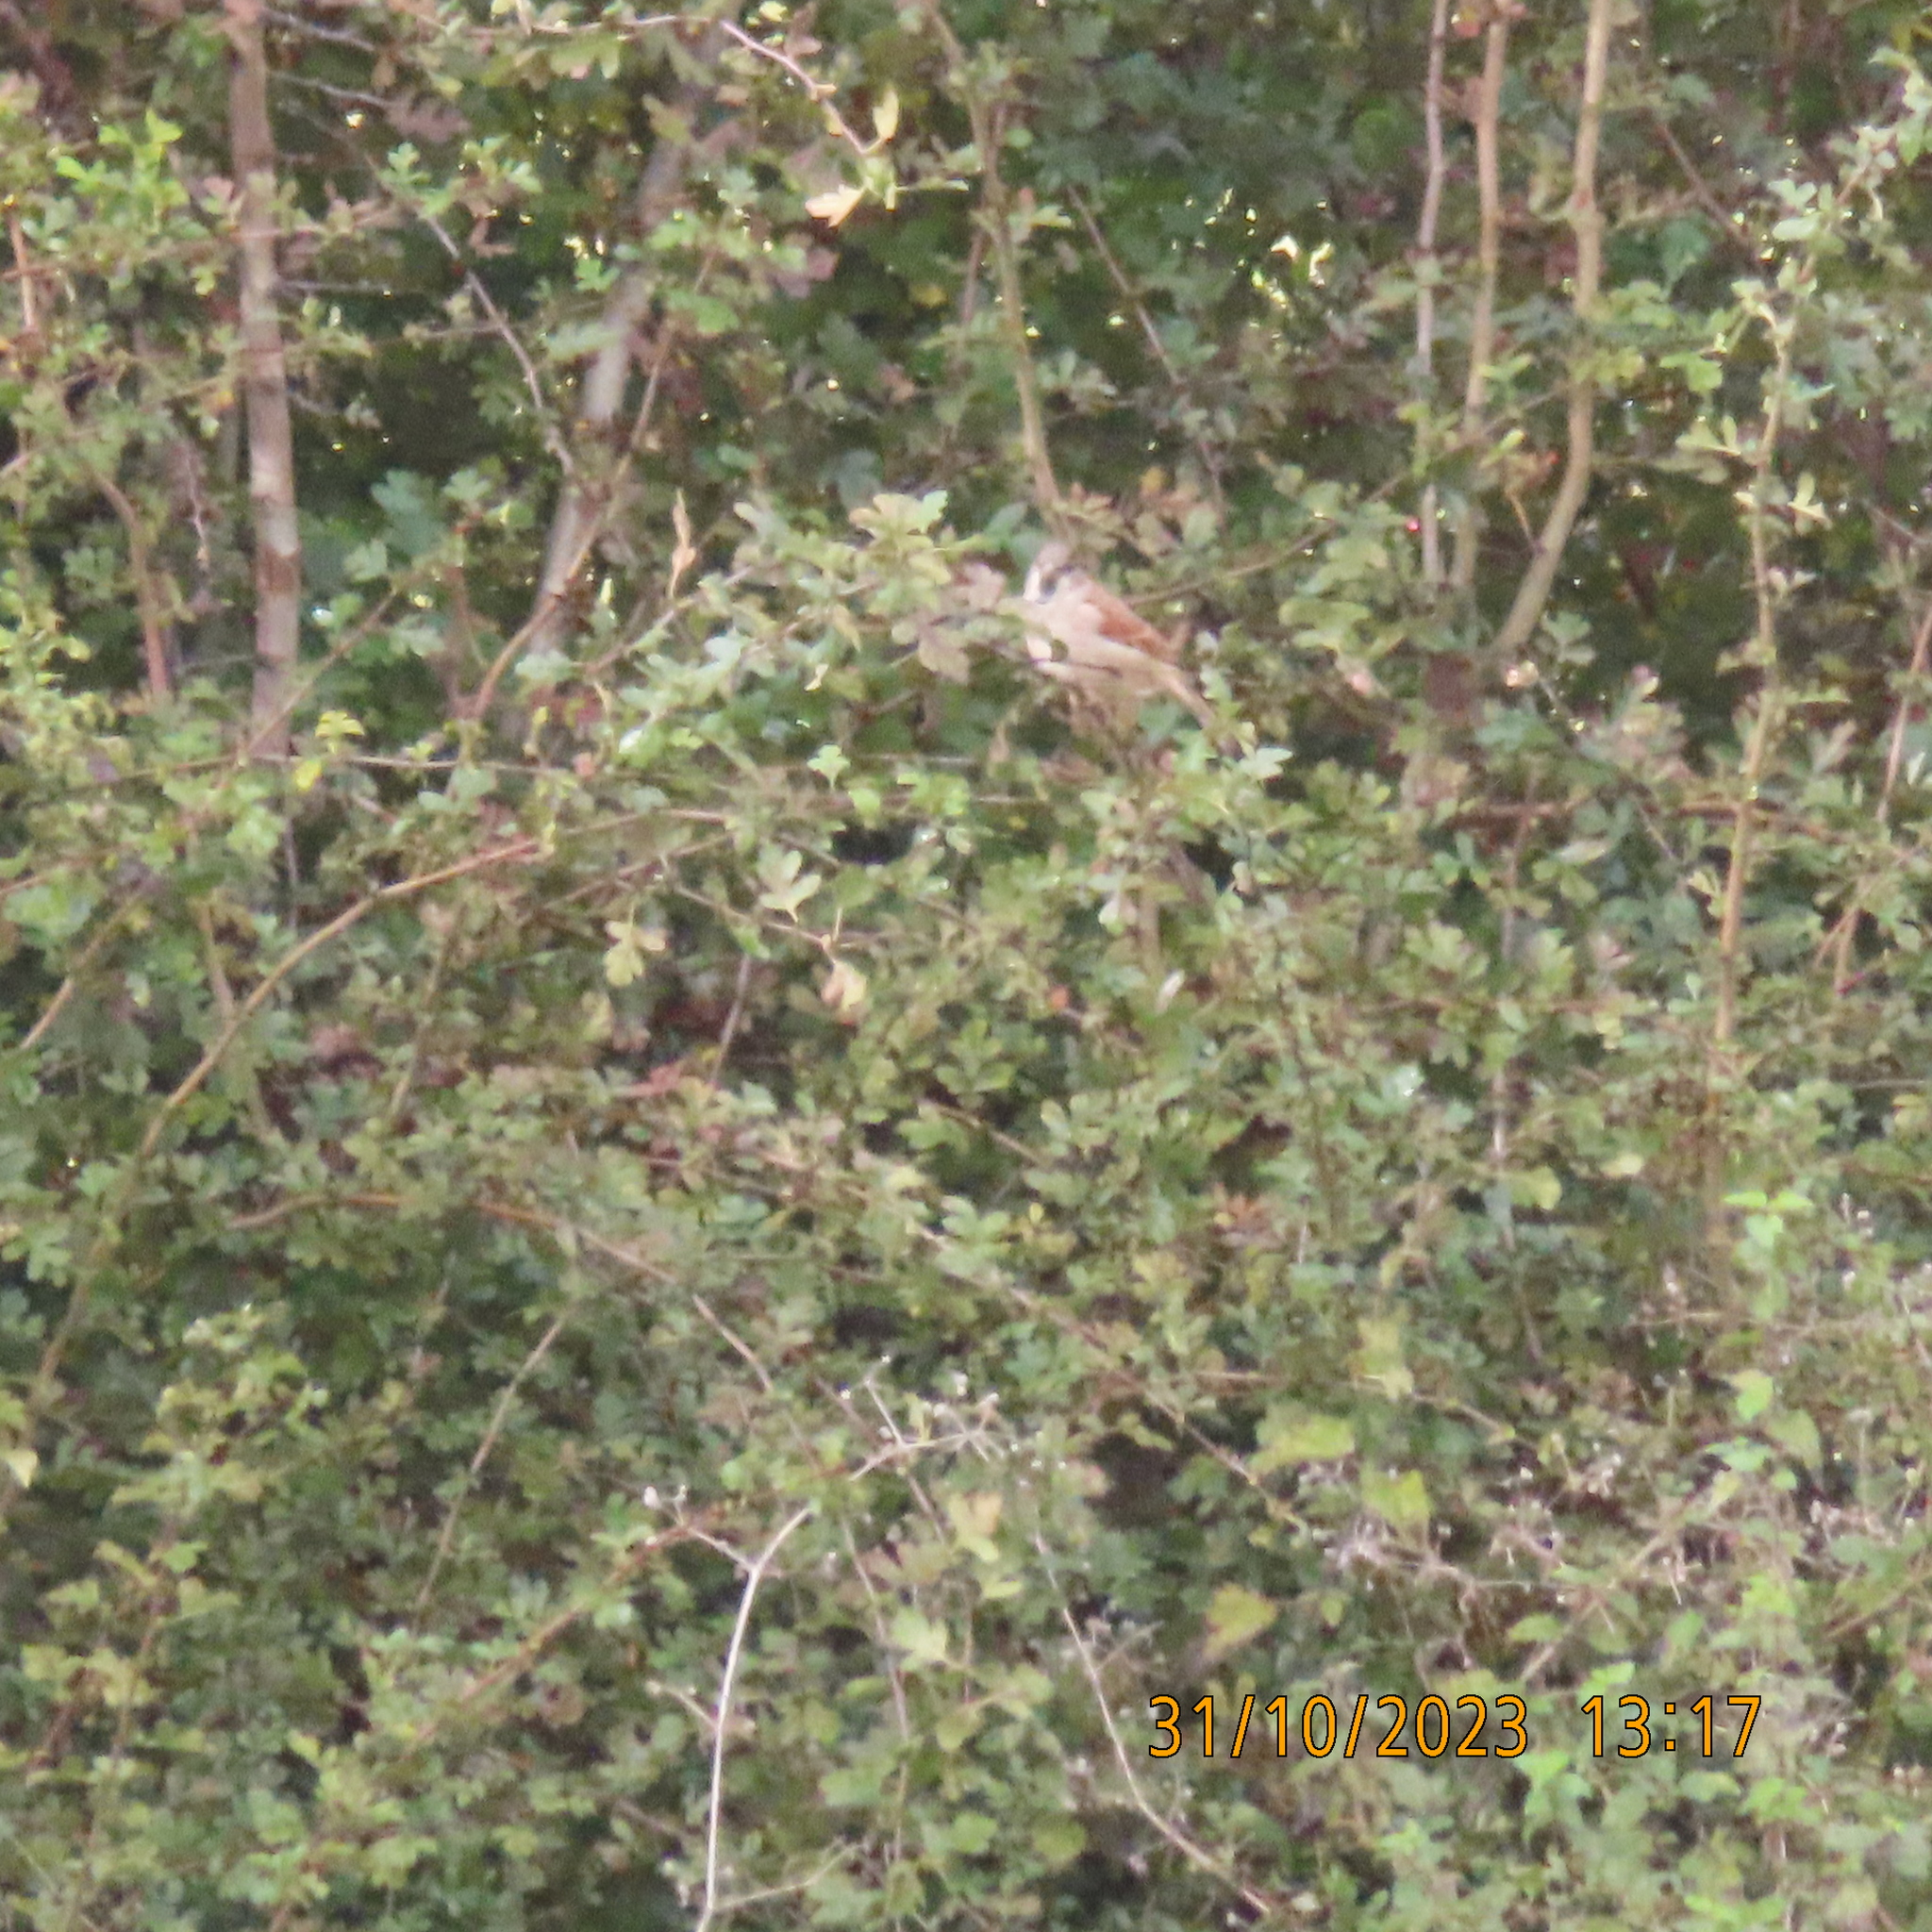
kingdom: Animalia
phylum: Chordata
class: Aves
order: Passeriformes
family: Passeridae
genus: Passer
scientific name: Passer domesticus
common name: House sparrow
